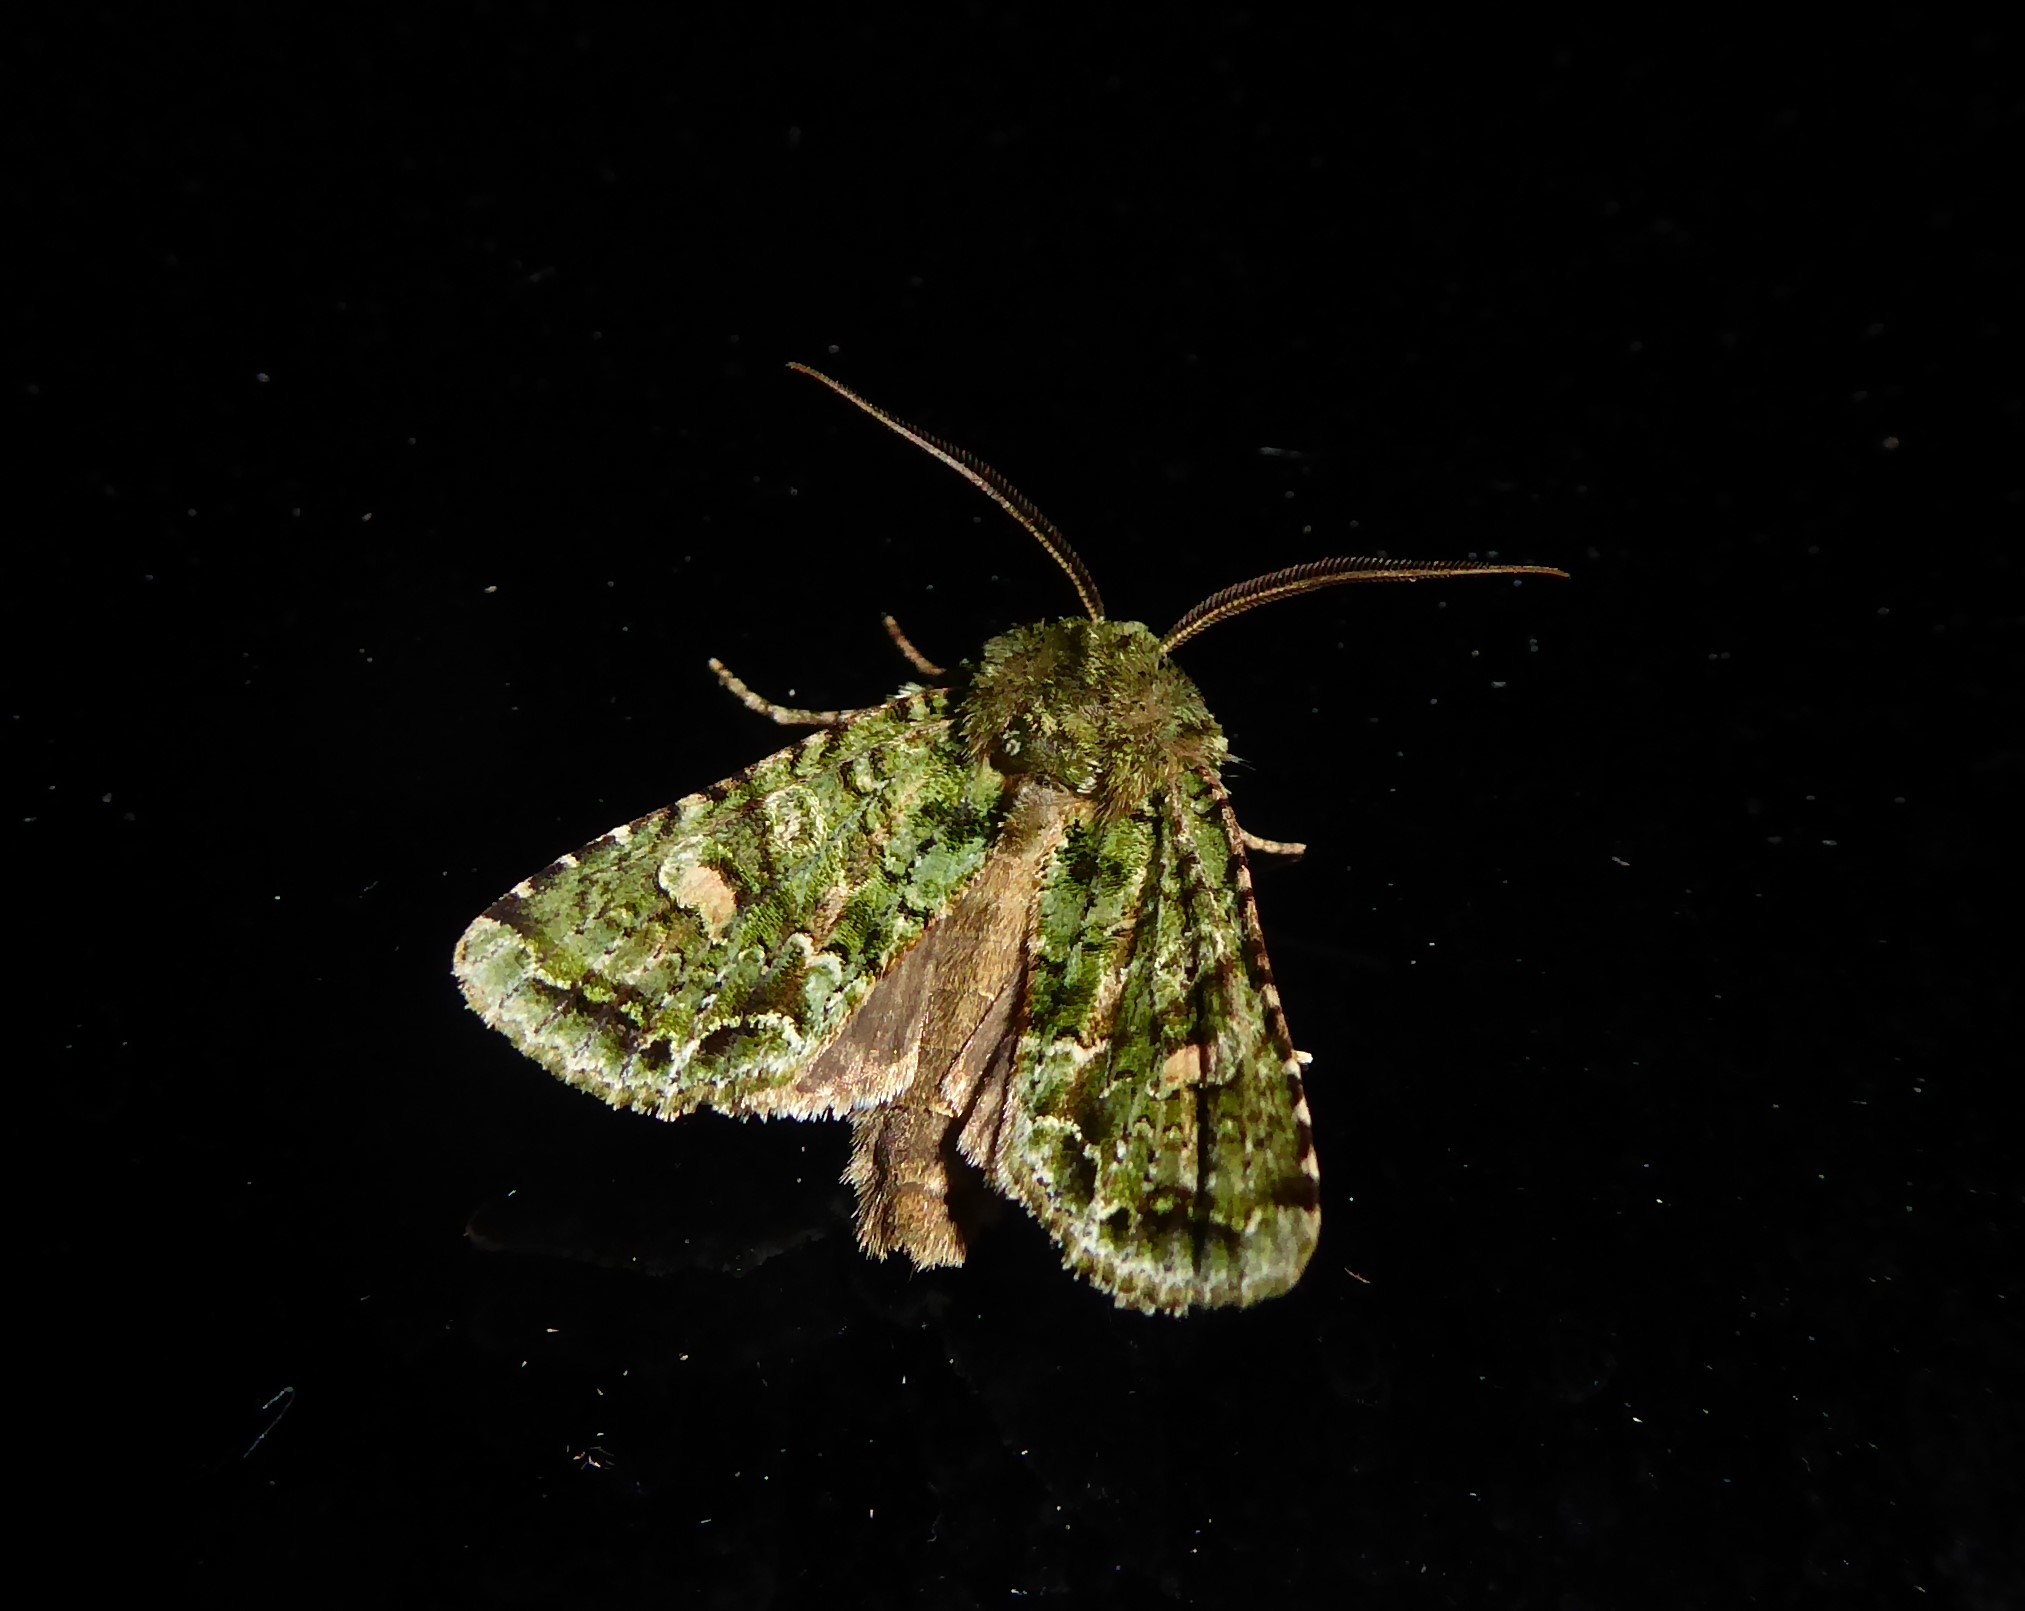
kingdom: Animalia
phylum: Arthropoda
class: Insecta
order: Lepidoptera
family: Noctuidae
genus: Ichneutica
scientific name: Ichneutica
